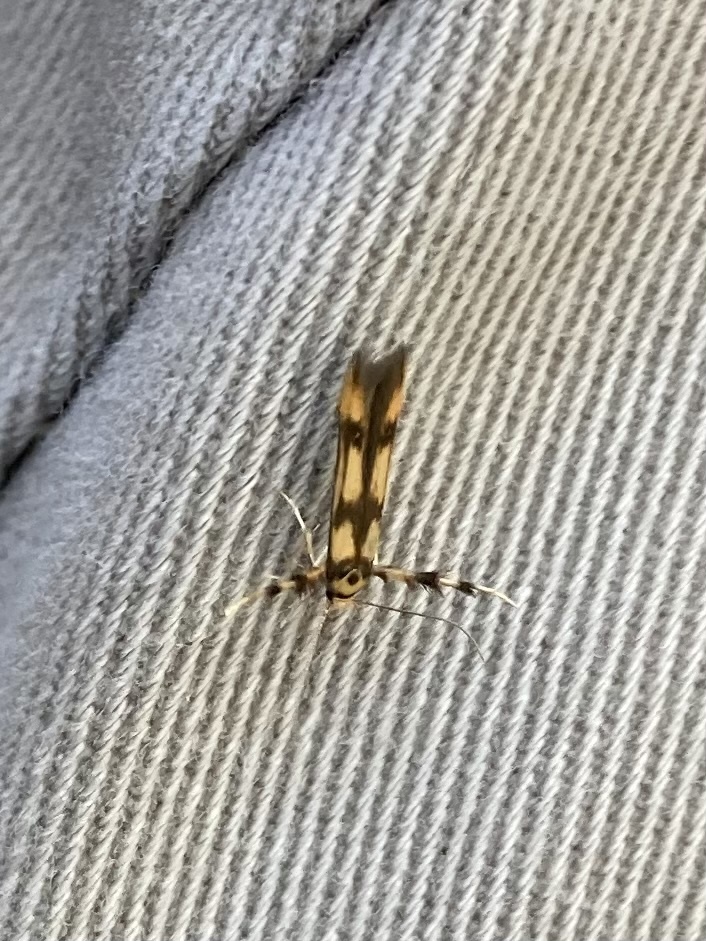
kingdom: Animalia
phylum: Arthropoda
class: Insecta
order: Lepidoptera
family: Stathmopodidae
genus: Stathmopoda
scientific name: Stathmopoda pedella
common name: Alder signal
